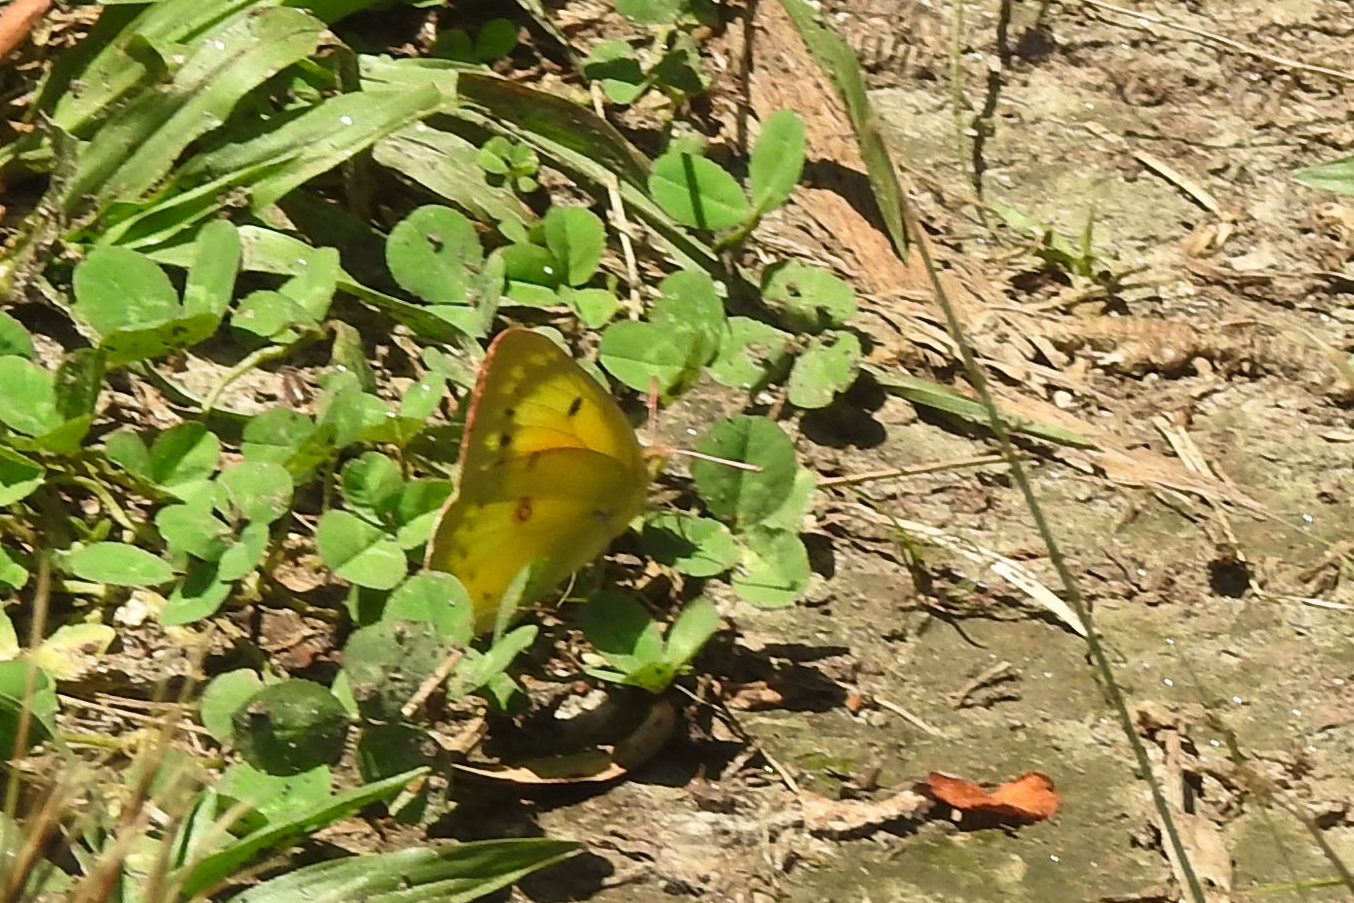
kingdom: Animalia
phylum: Arthropoda
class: Insecta
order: Lepidoptera
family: Pieridae
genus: Colias
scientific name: Colias eurytheme
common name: Alfalfa butterfly
